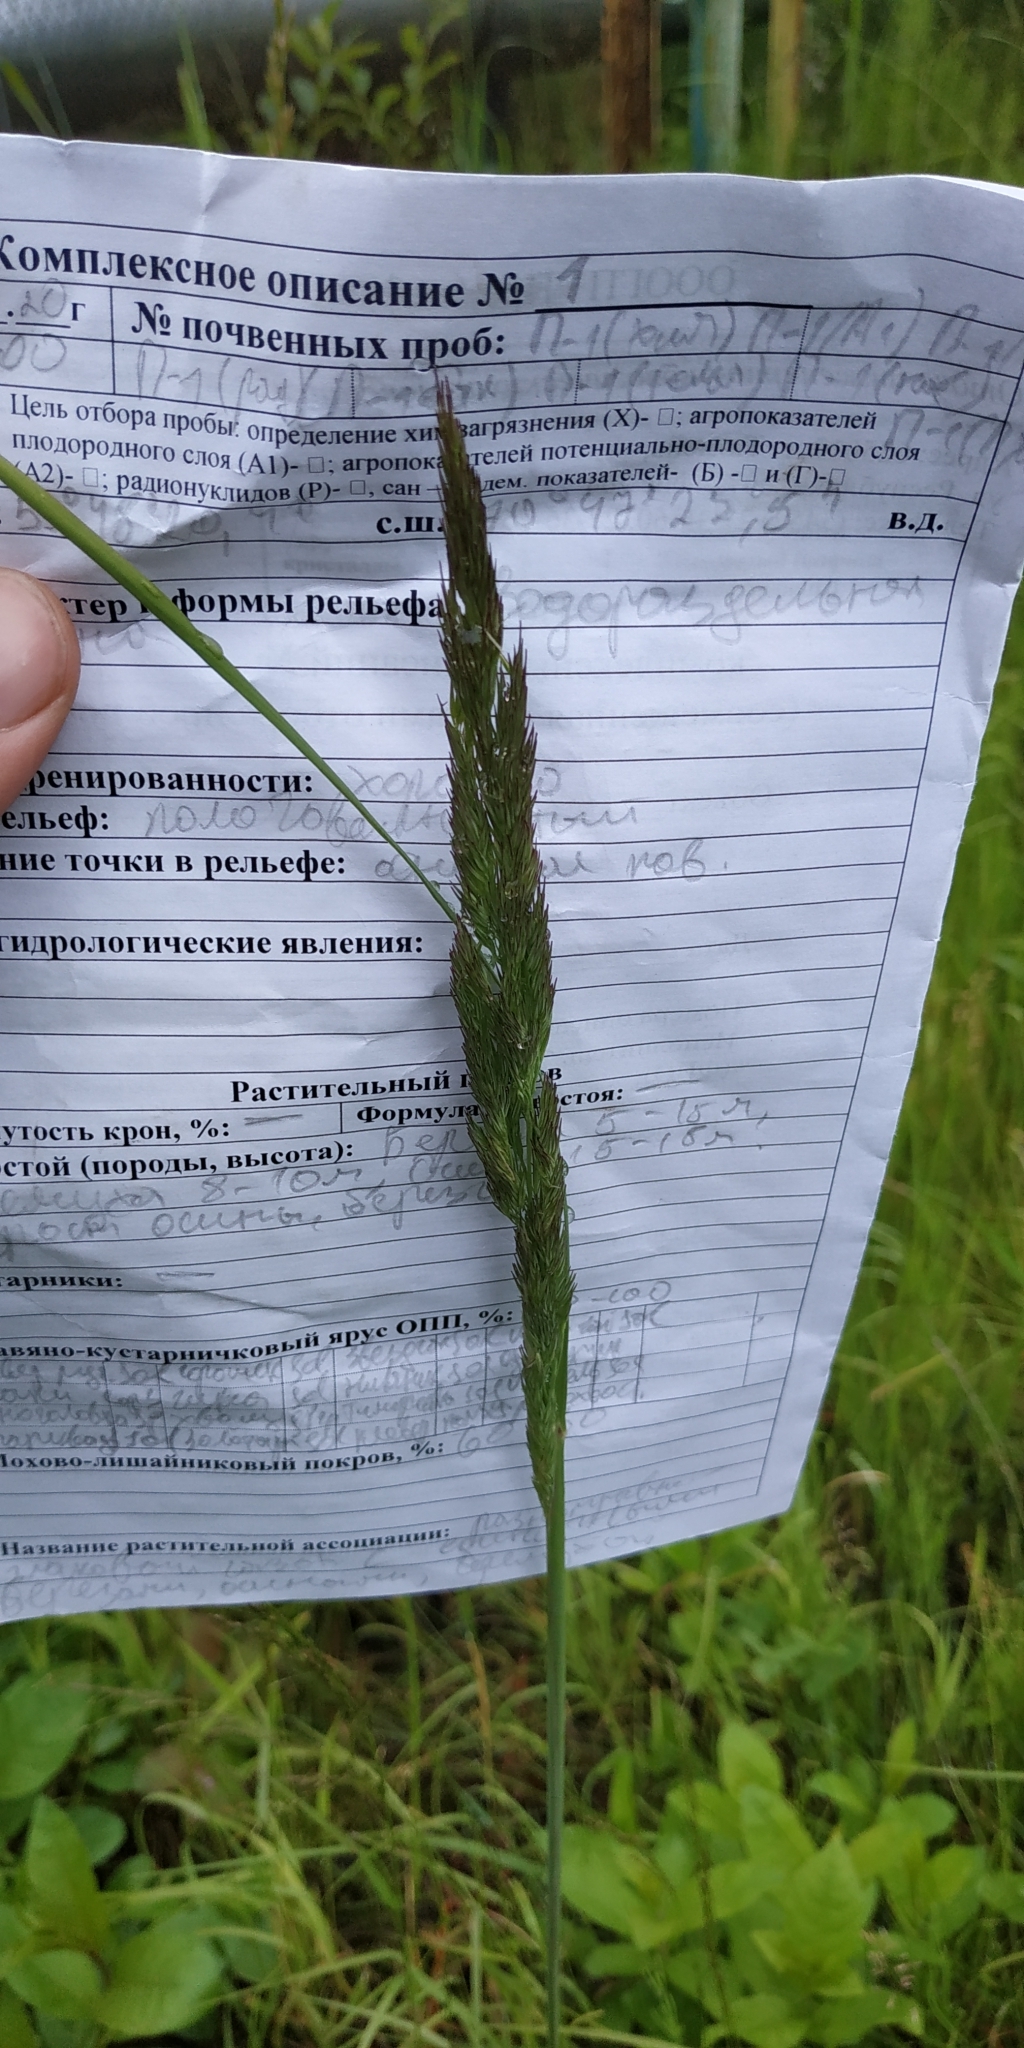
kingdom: Plantae
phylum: Tracheophyta
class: Liliopsida
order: Poales
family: Poaceae
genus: Calamagrostis
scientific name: Calamagrostis epigejos
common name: Wood small-reed
